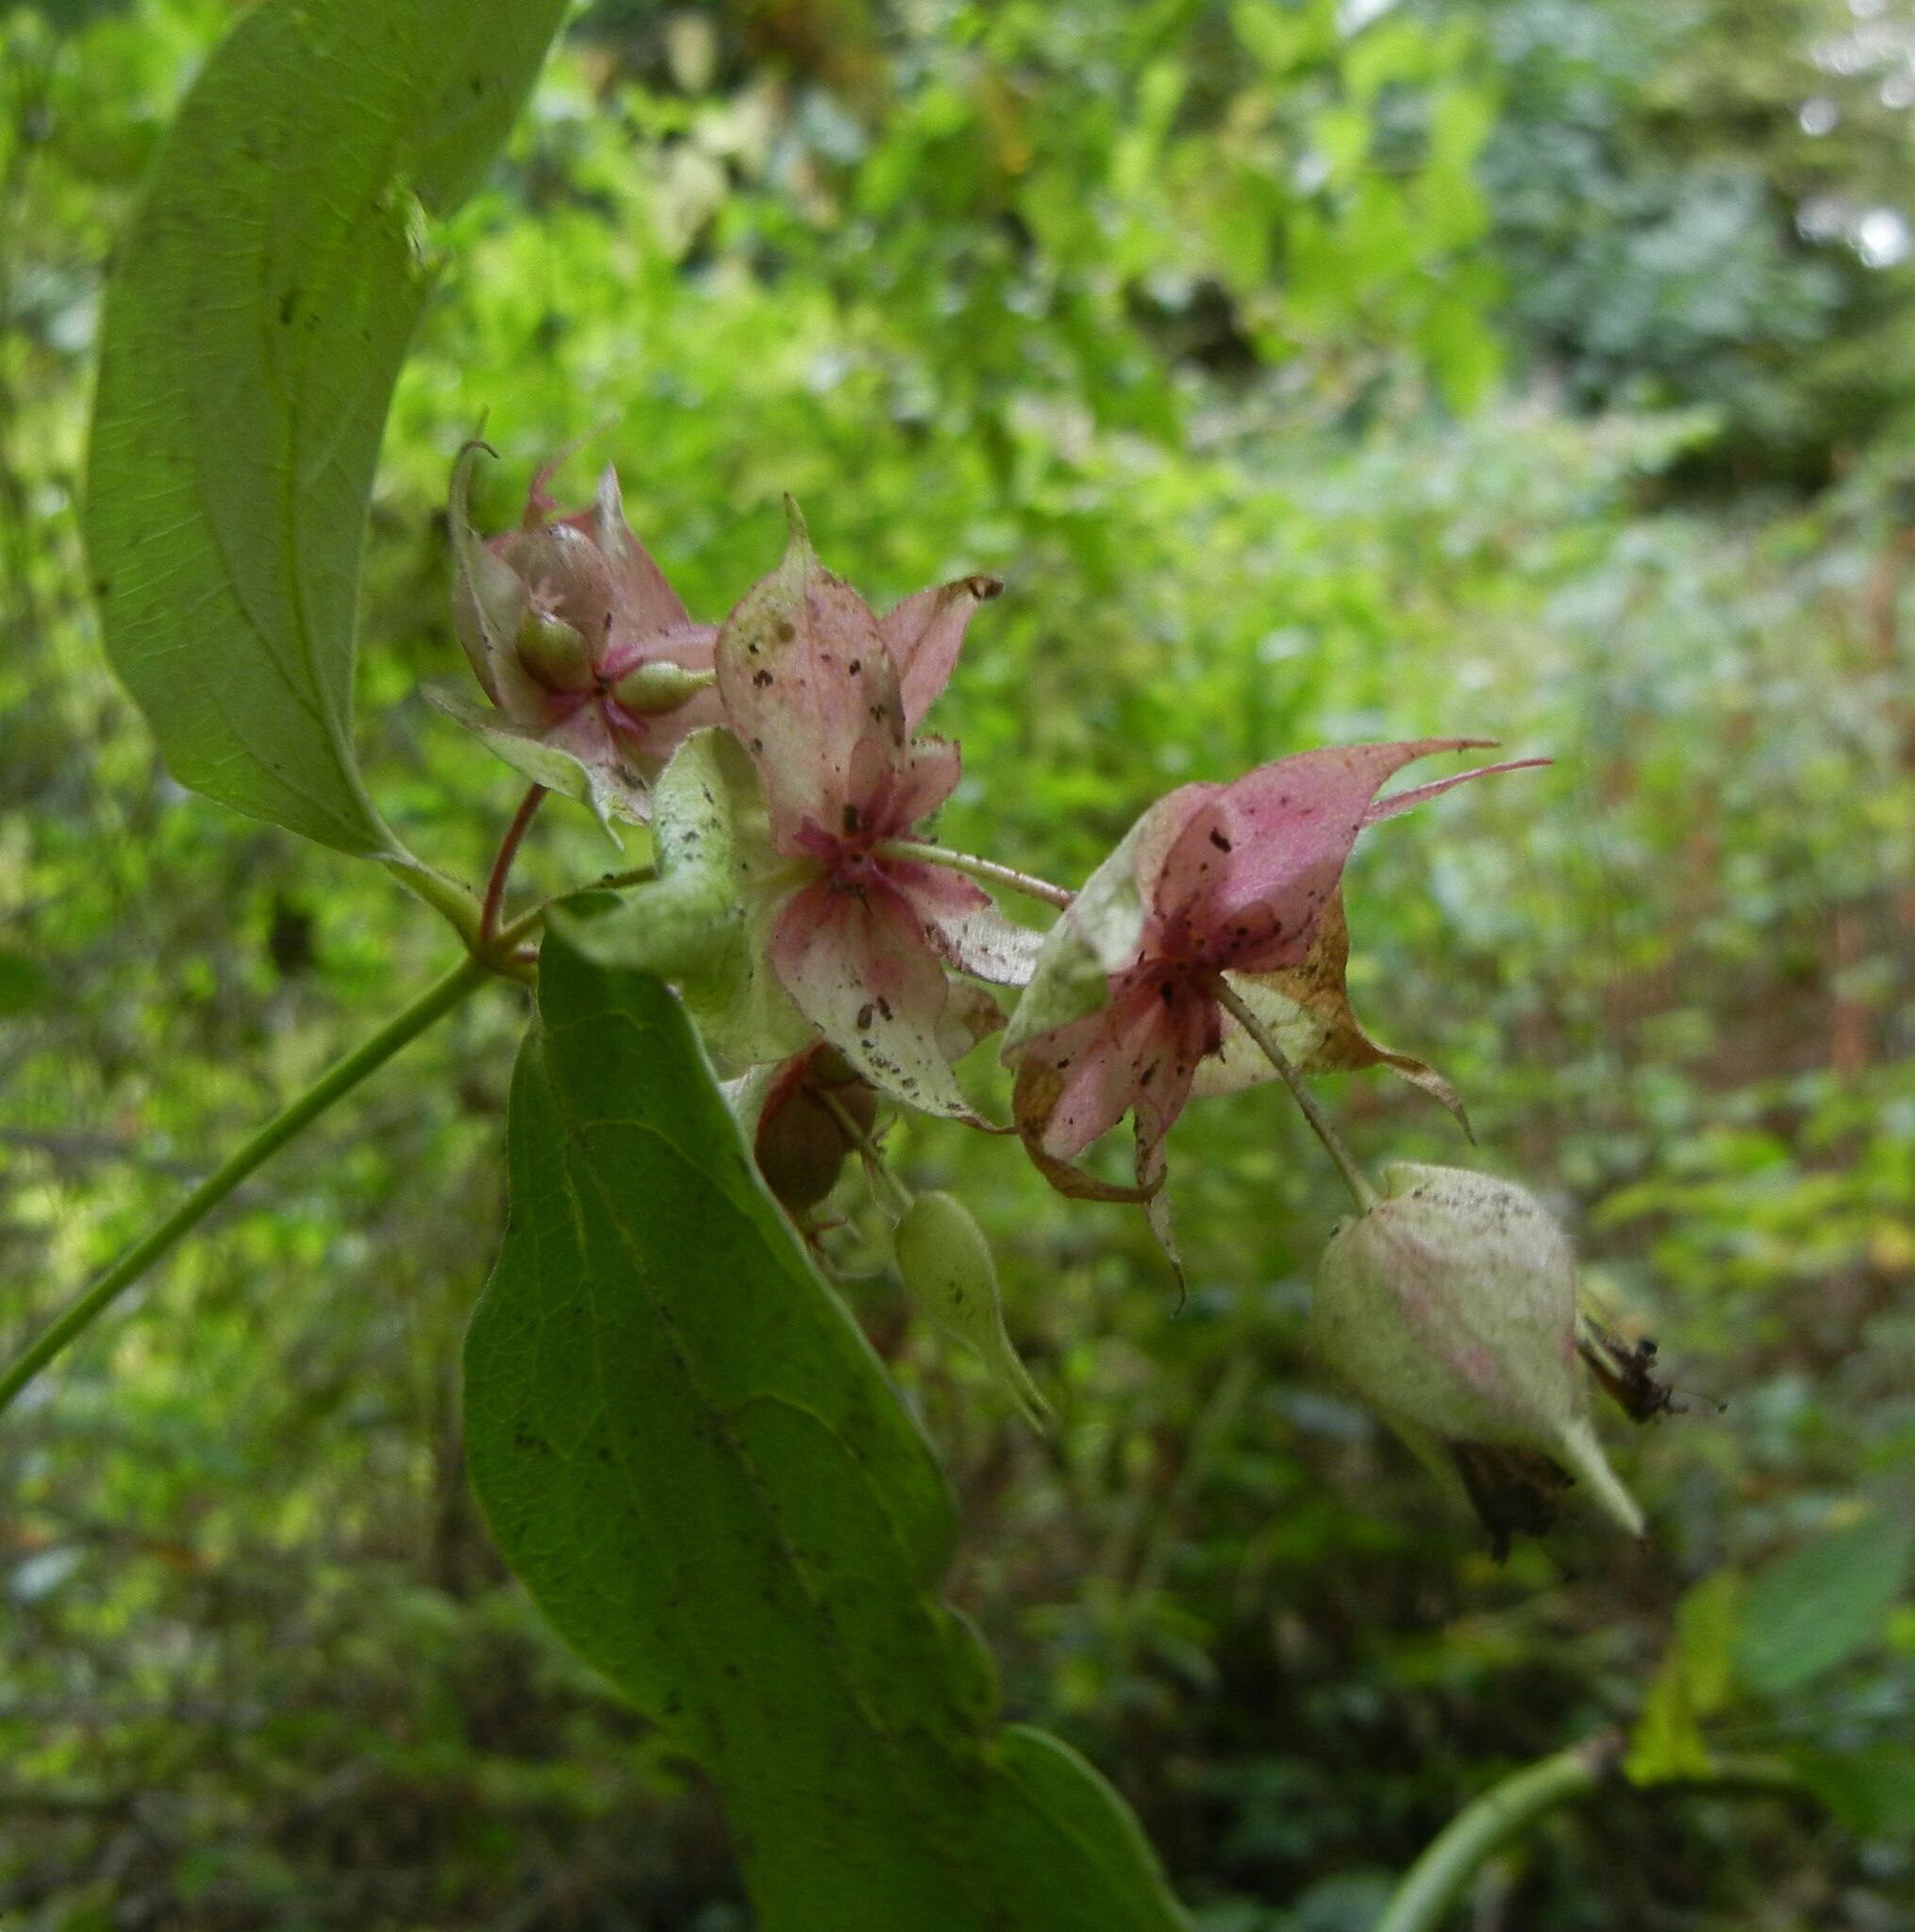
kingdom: Plantae
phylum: Tracheophyta
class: Magnoliopsida
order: Dipsacales
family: Caprifoliaceae
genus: Leycesteria
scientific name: Leycesteria formosa
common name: Himalayan honeysuckle
